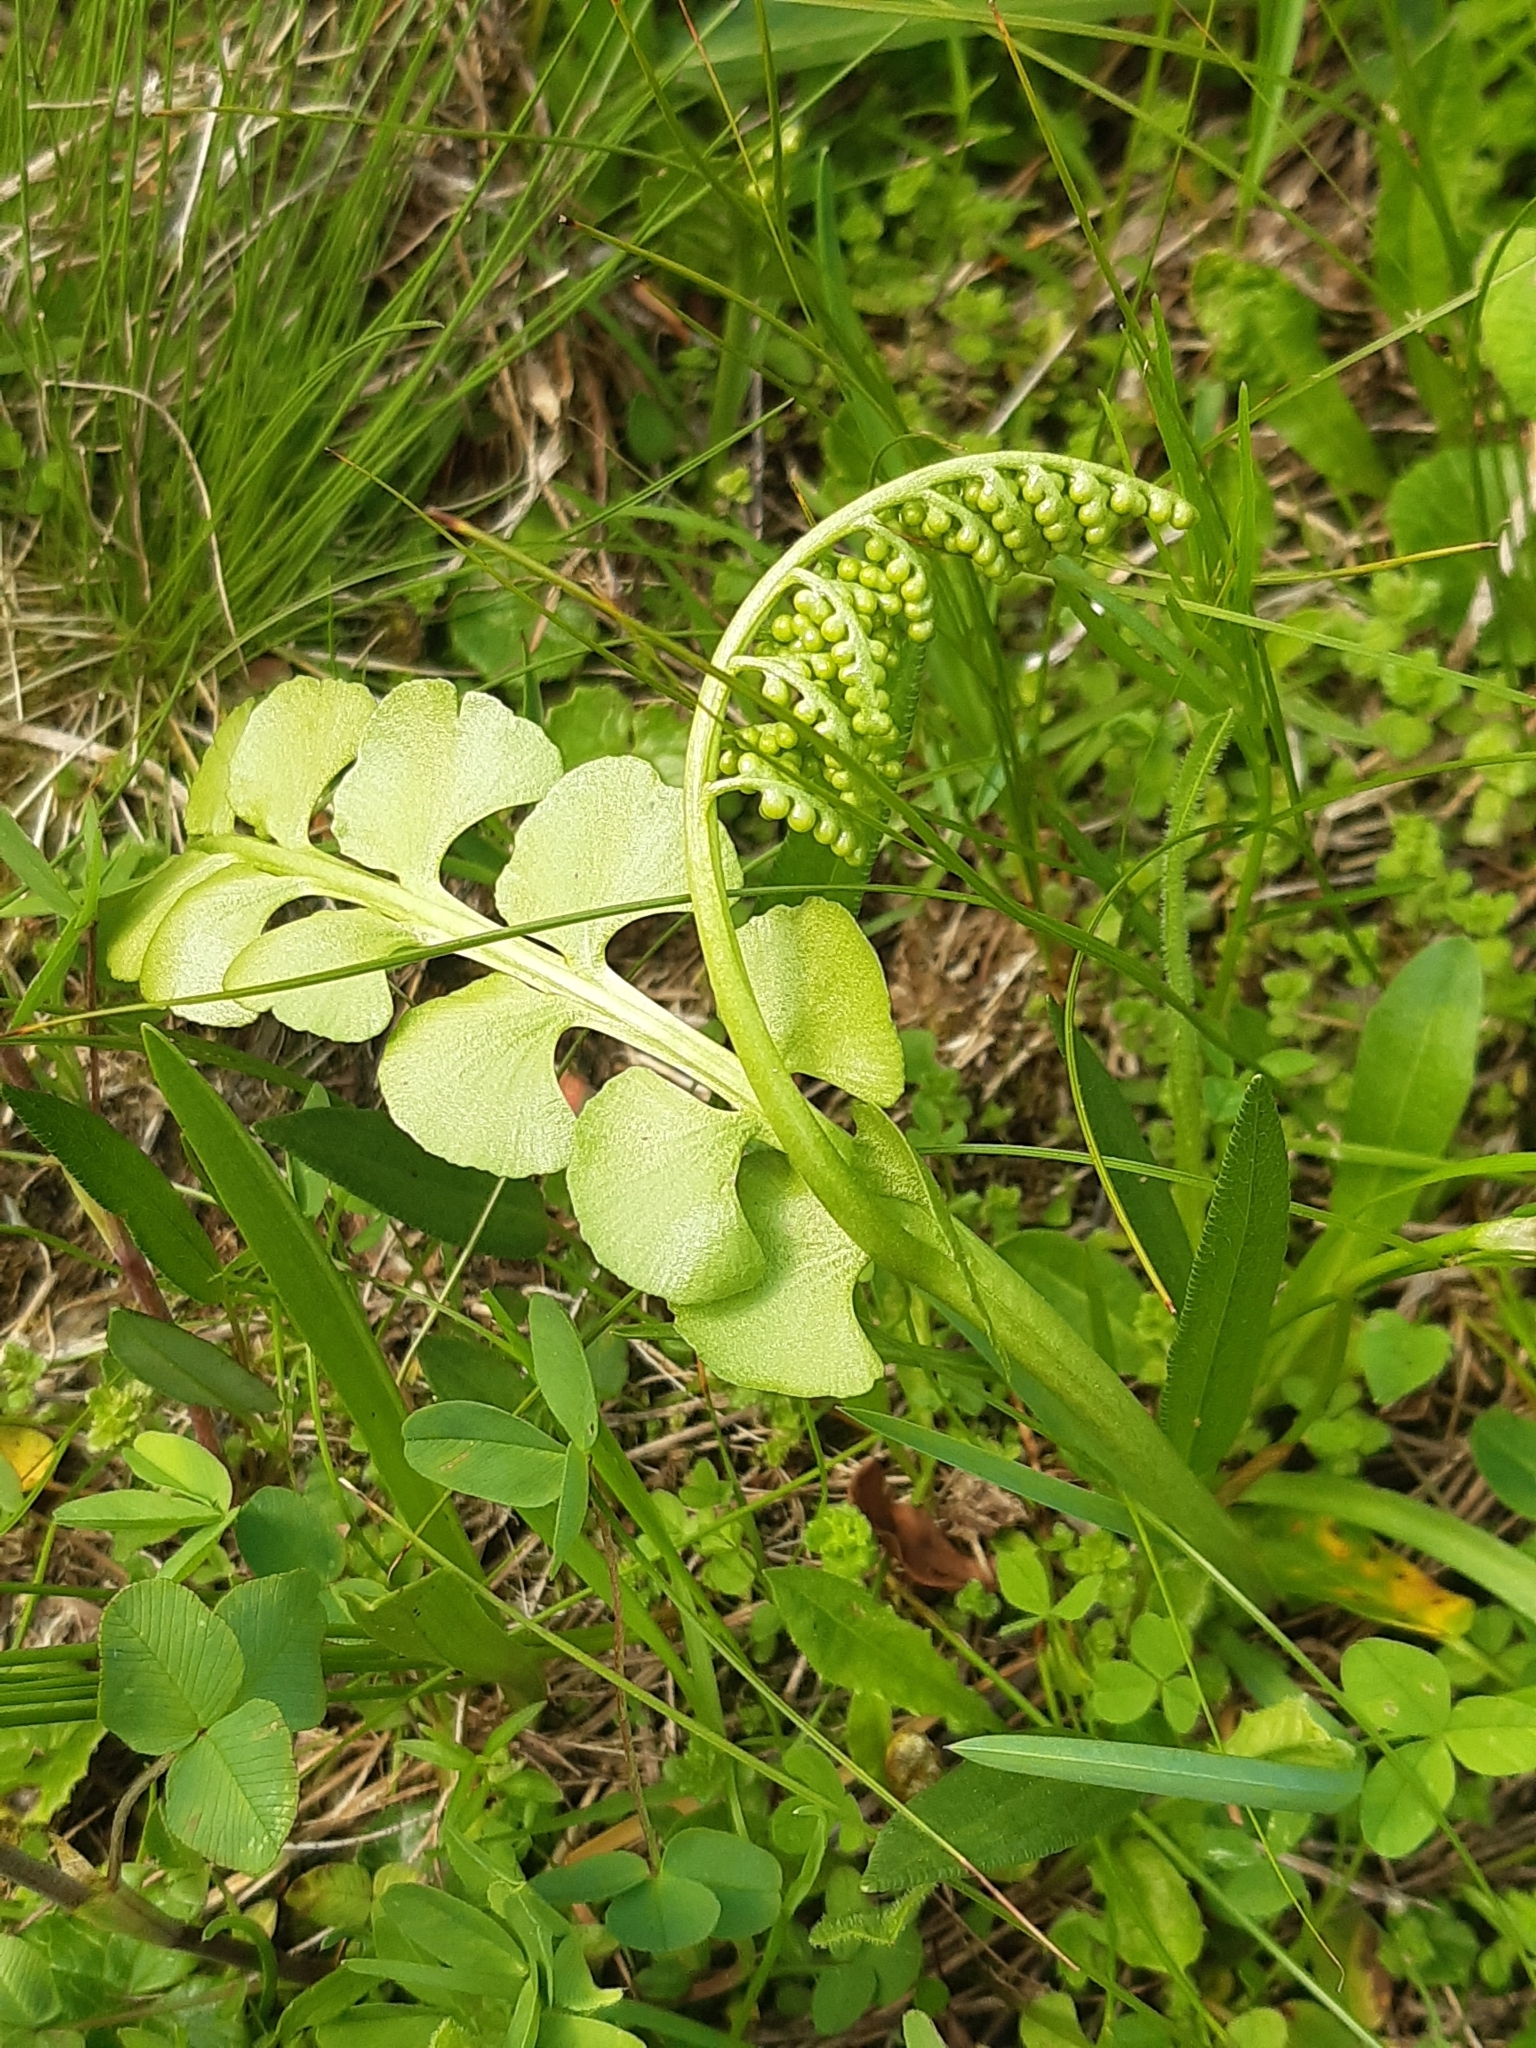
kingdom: Plantae
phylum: Tracheophyta
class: Polypodiopsida
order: Ophioglossales
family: Ophioglossaceae
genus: Botrychium
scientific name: Botrychium lunaria
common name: Moonwort
